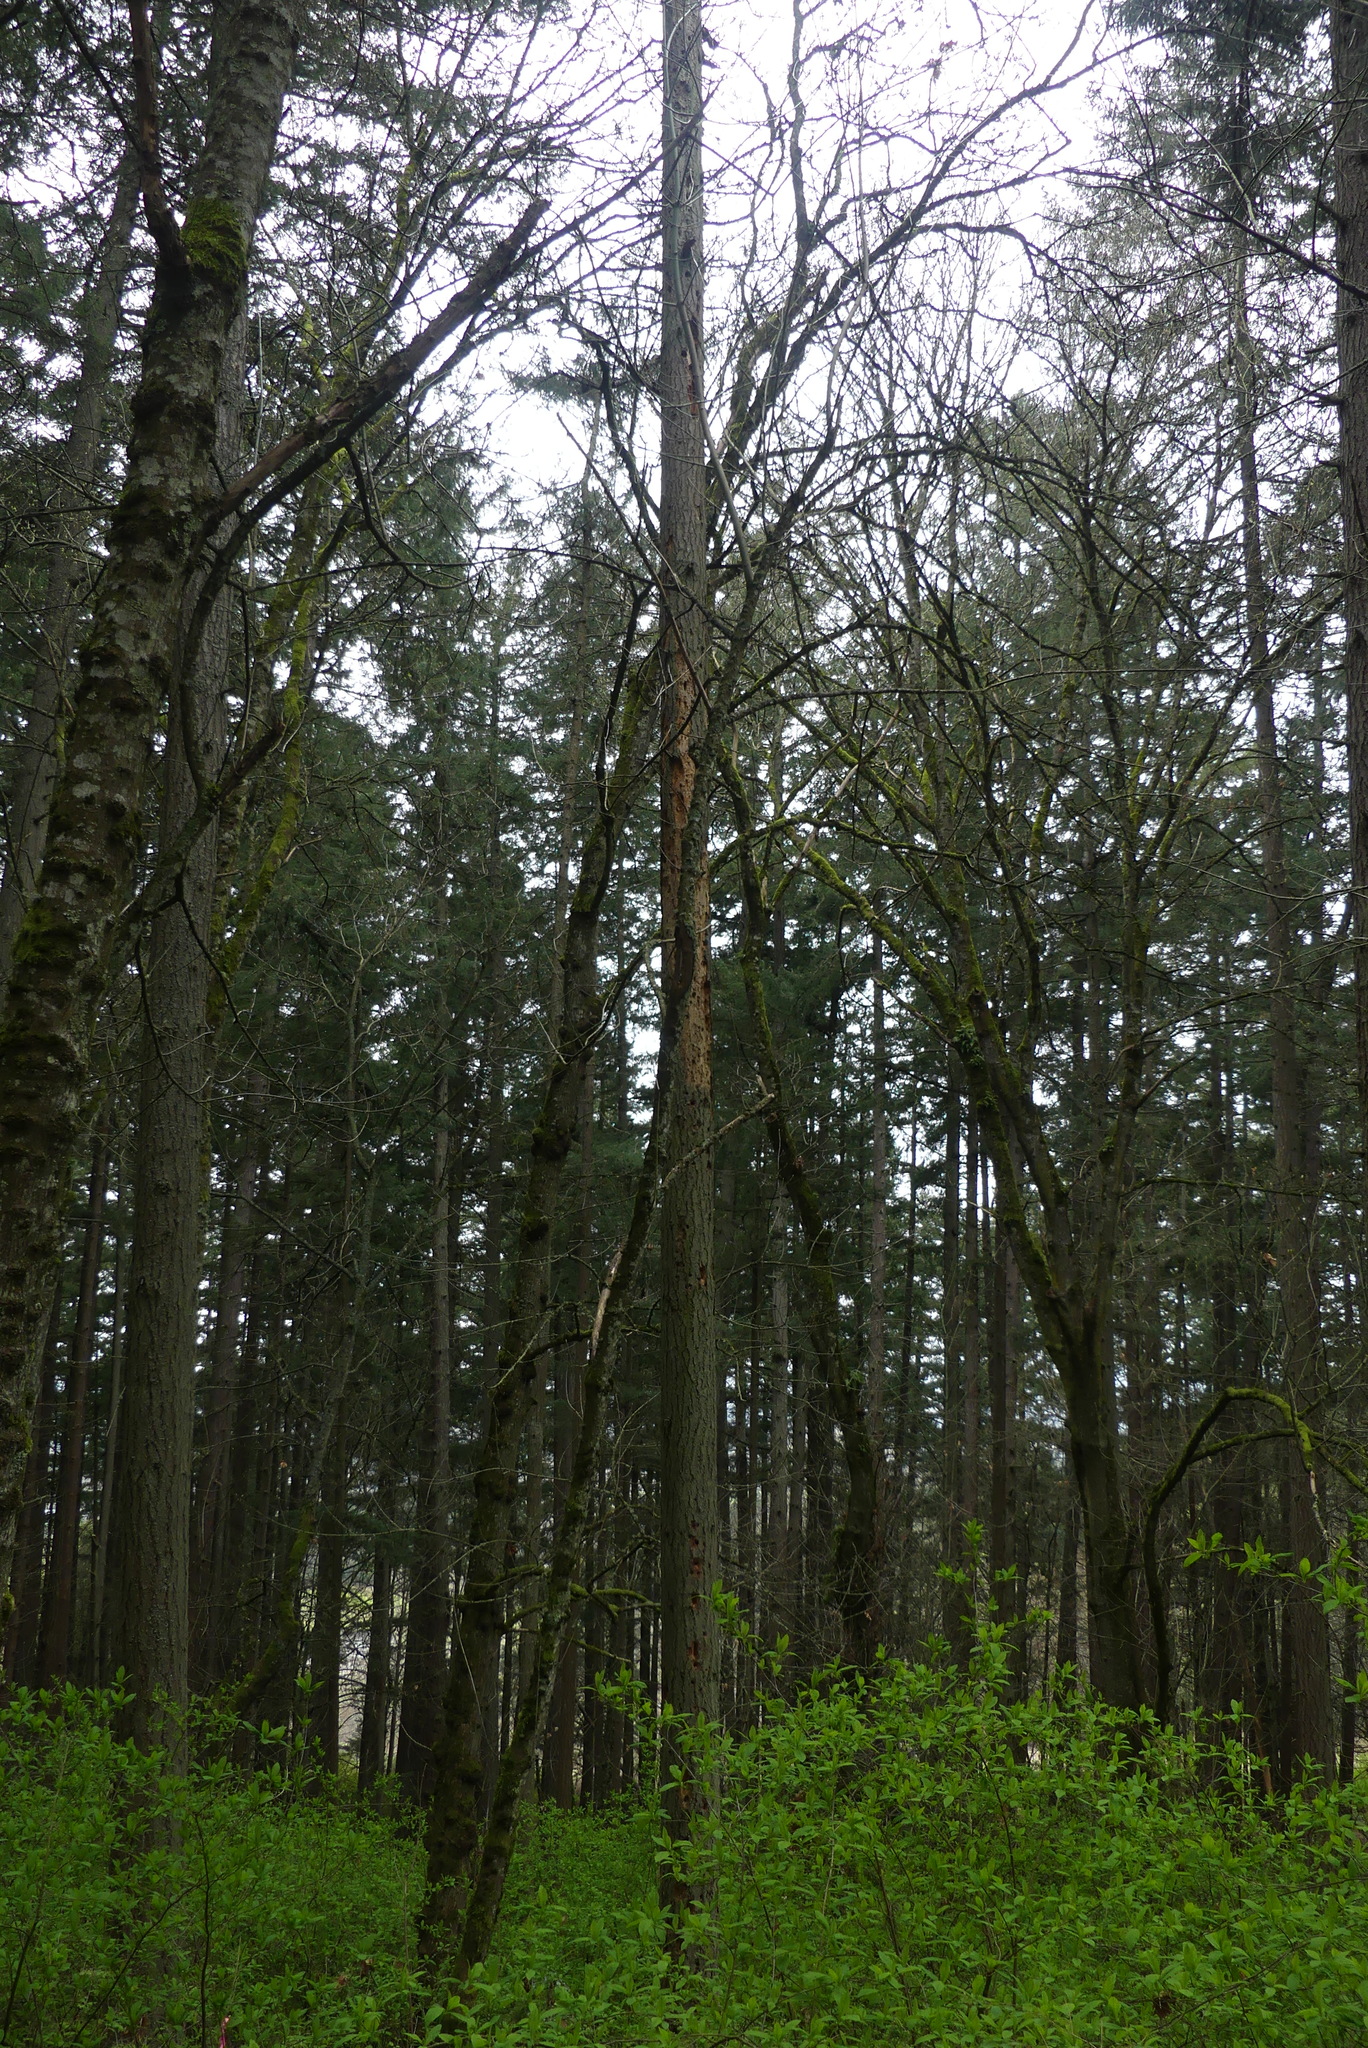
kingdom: Animalia
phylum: Chordata
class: Aves
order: Piciformes
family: Picidae
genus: Dryocopus
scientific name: Dryocopus pileatus
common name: Pileated woodpecker
